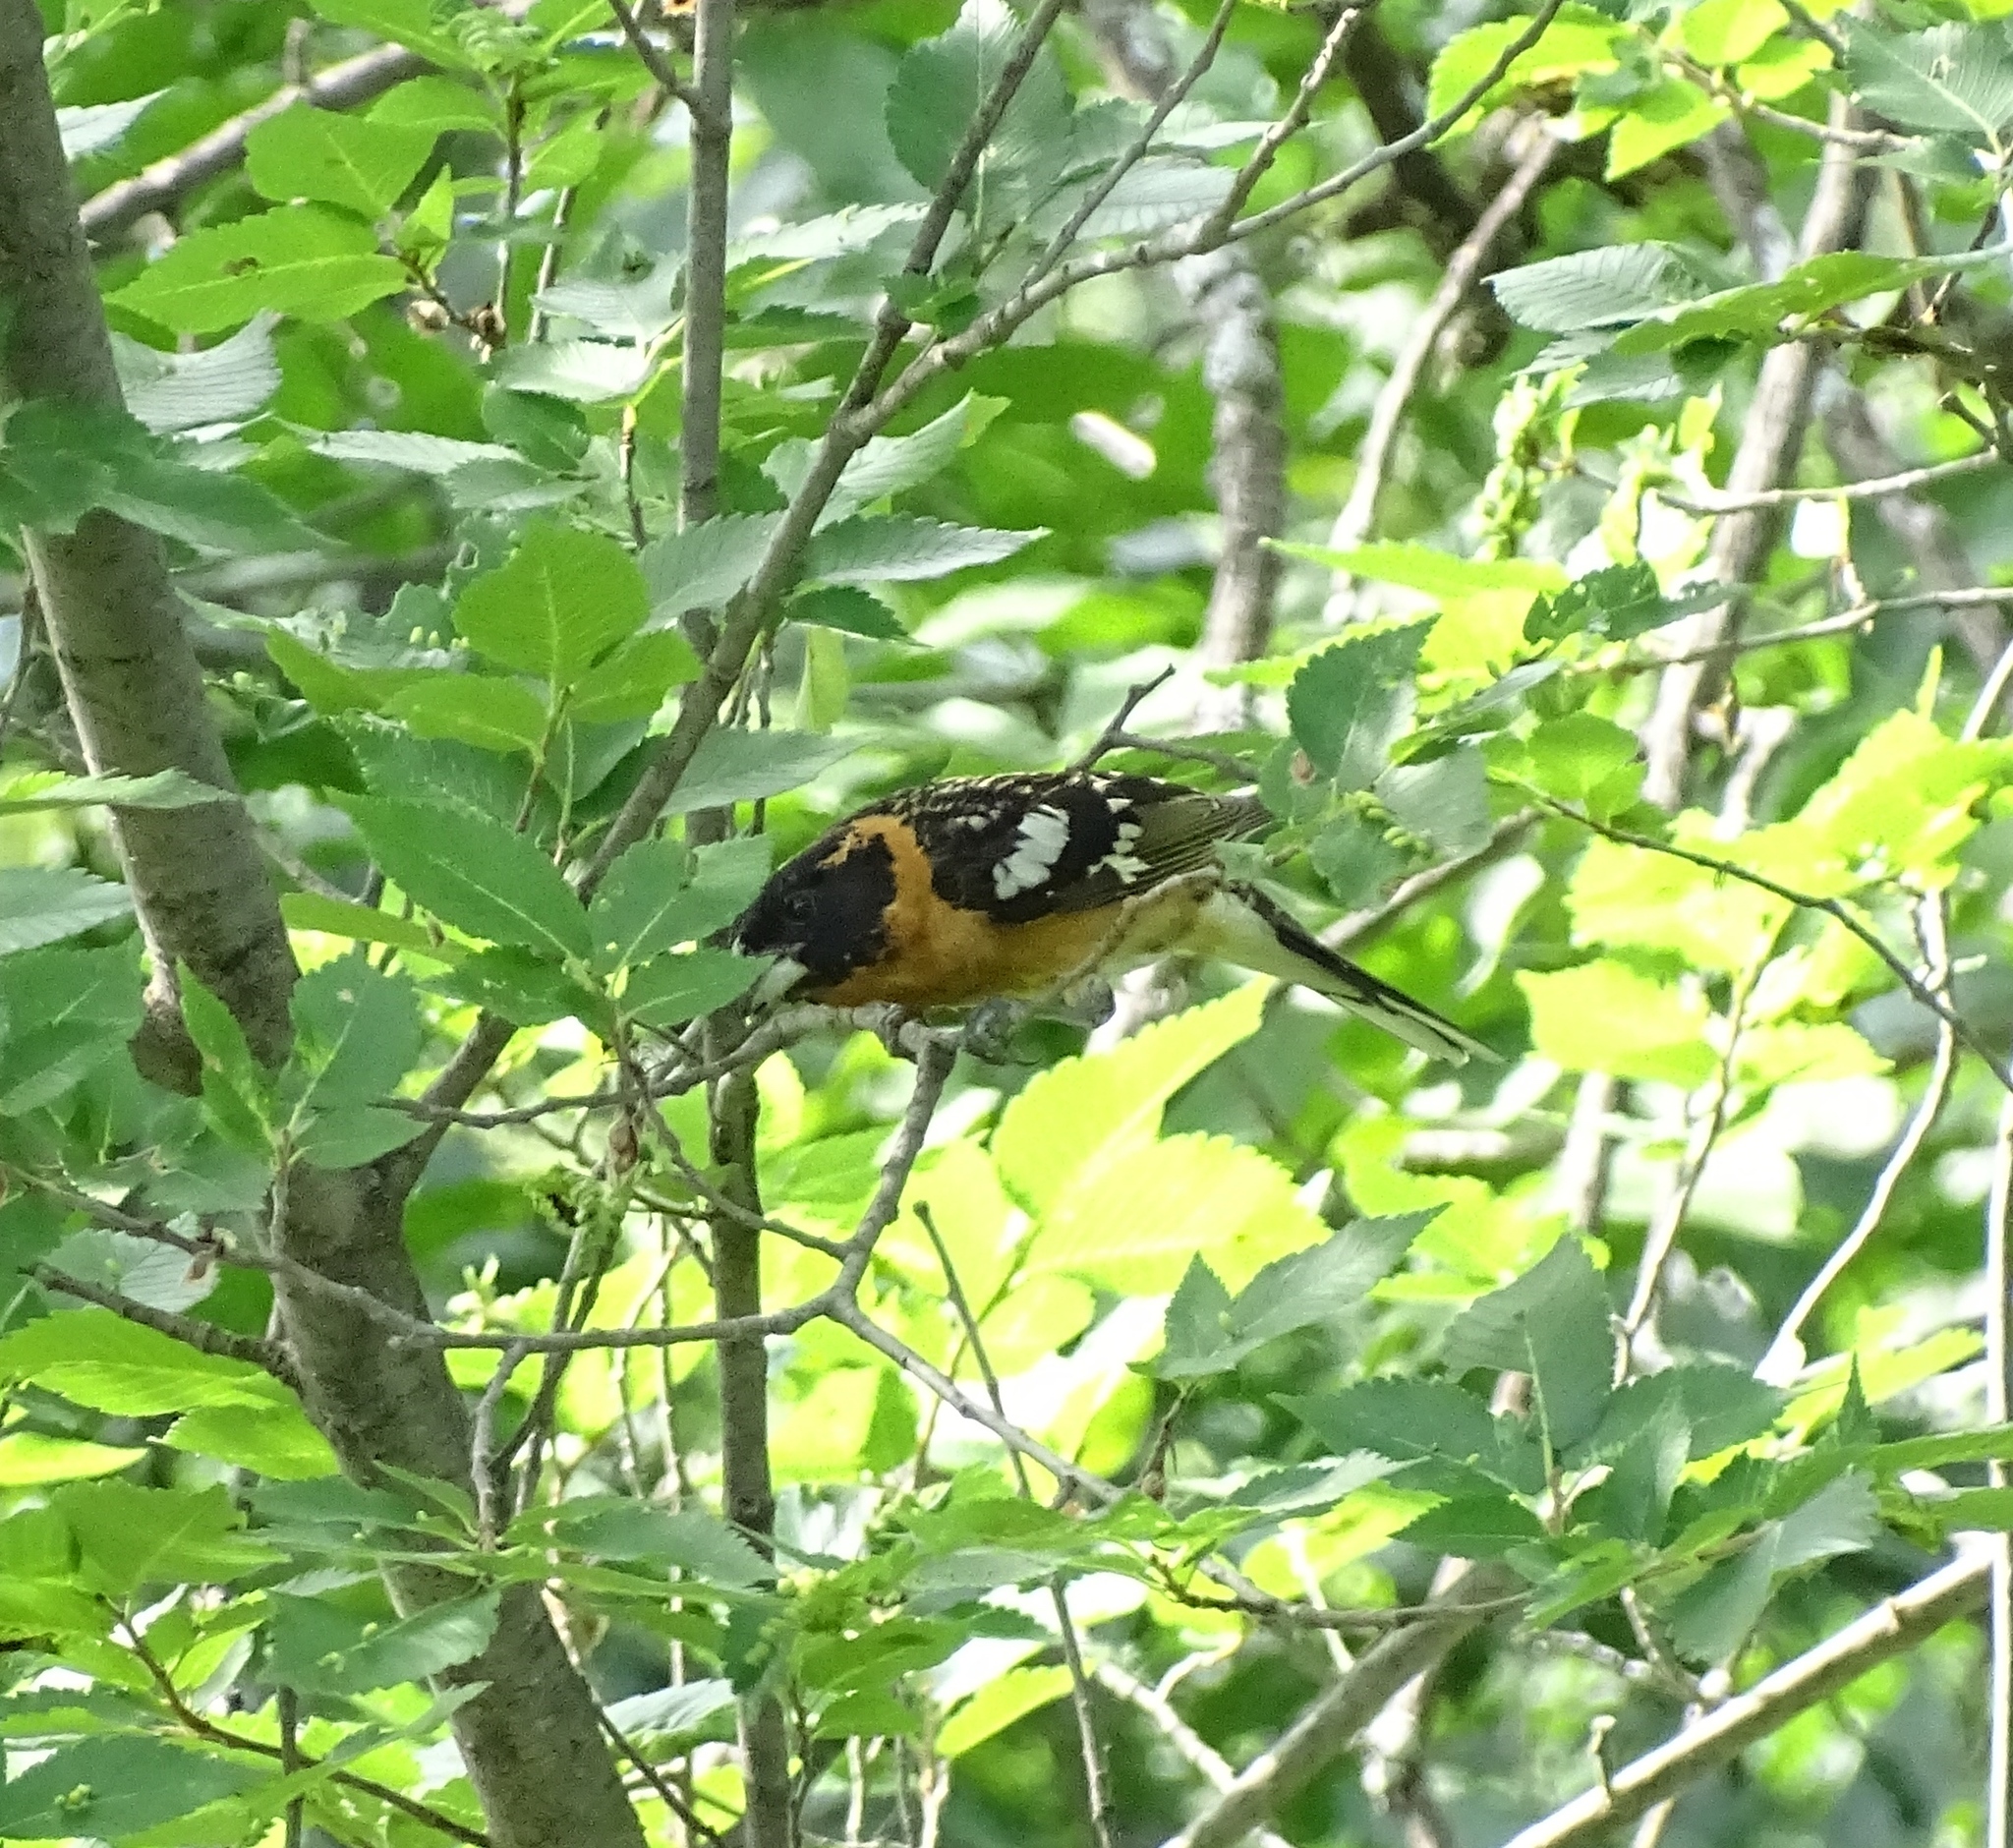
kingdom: Animalia
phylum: Chordata
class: Aves
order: Passeriformes
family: Cardinalidae
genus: Pheucticus
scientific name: Pheucticus melanocephalus
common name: Black-headed grosbeak
